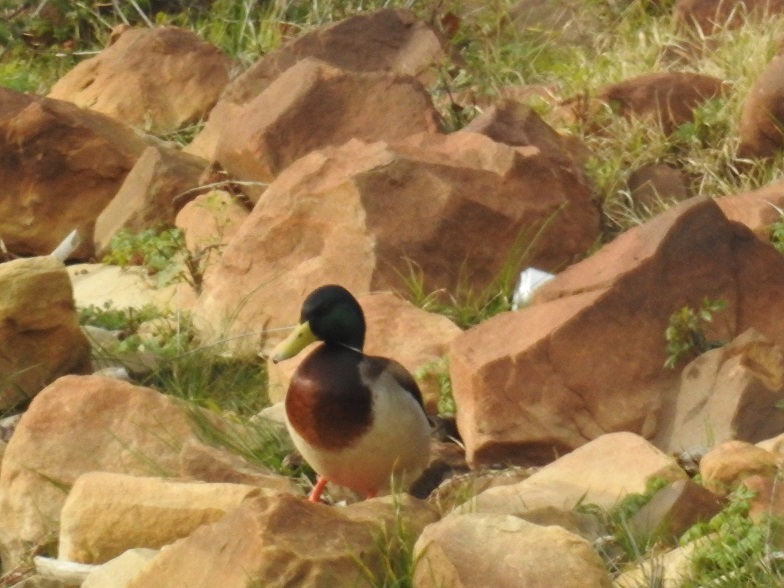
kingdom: Animalia
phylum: Chordata
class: Aves
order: Anseriformes
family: Anatidae
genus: Anas
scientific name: Anas platyrhynchos
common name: Mallard
